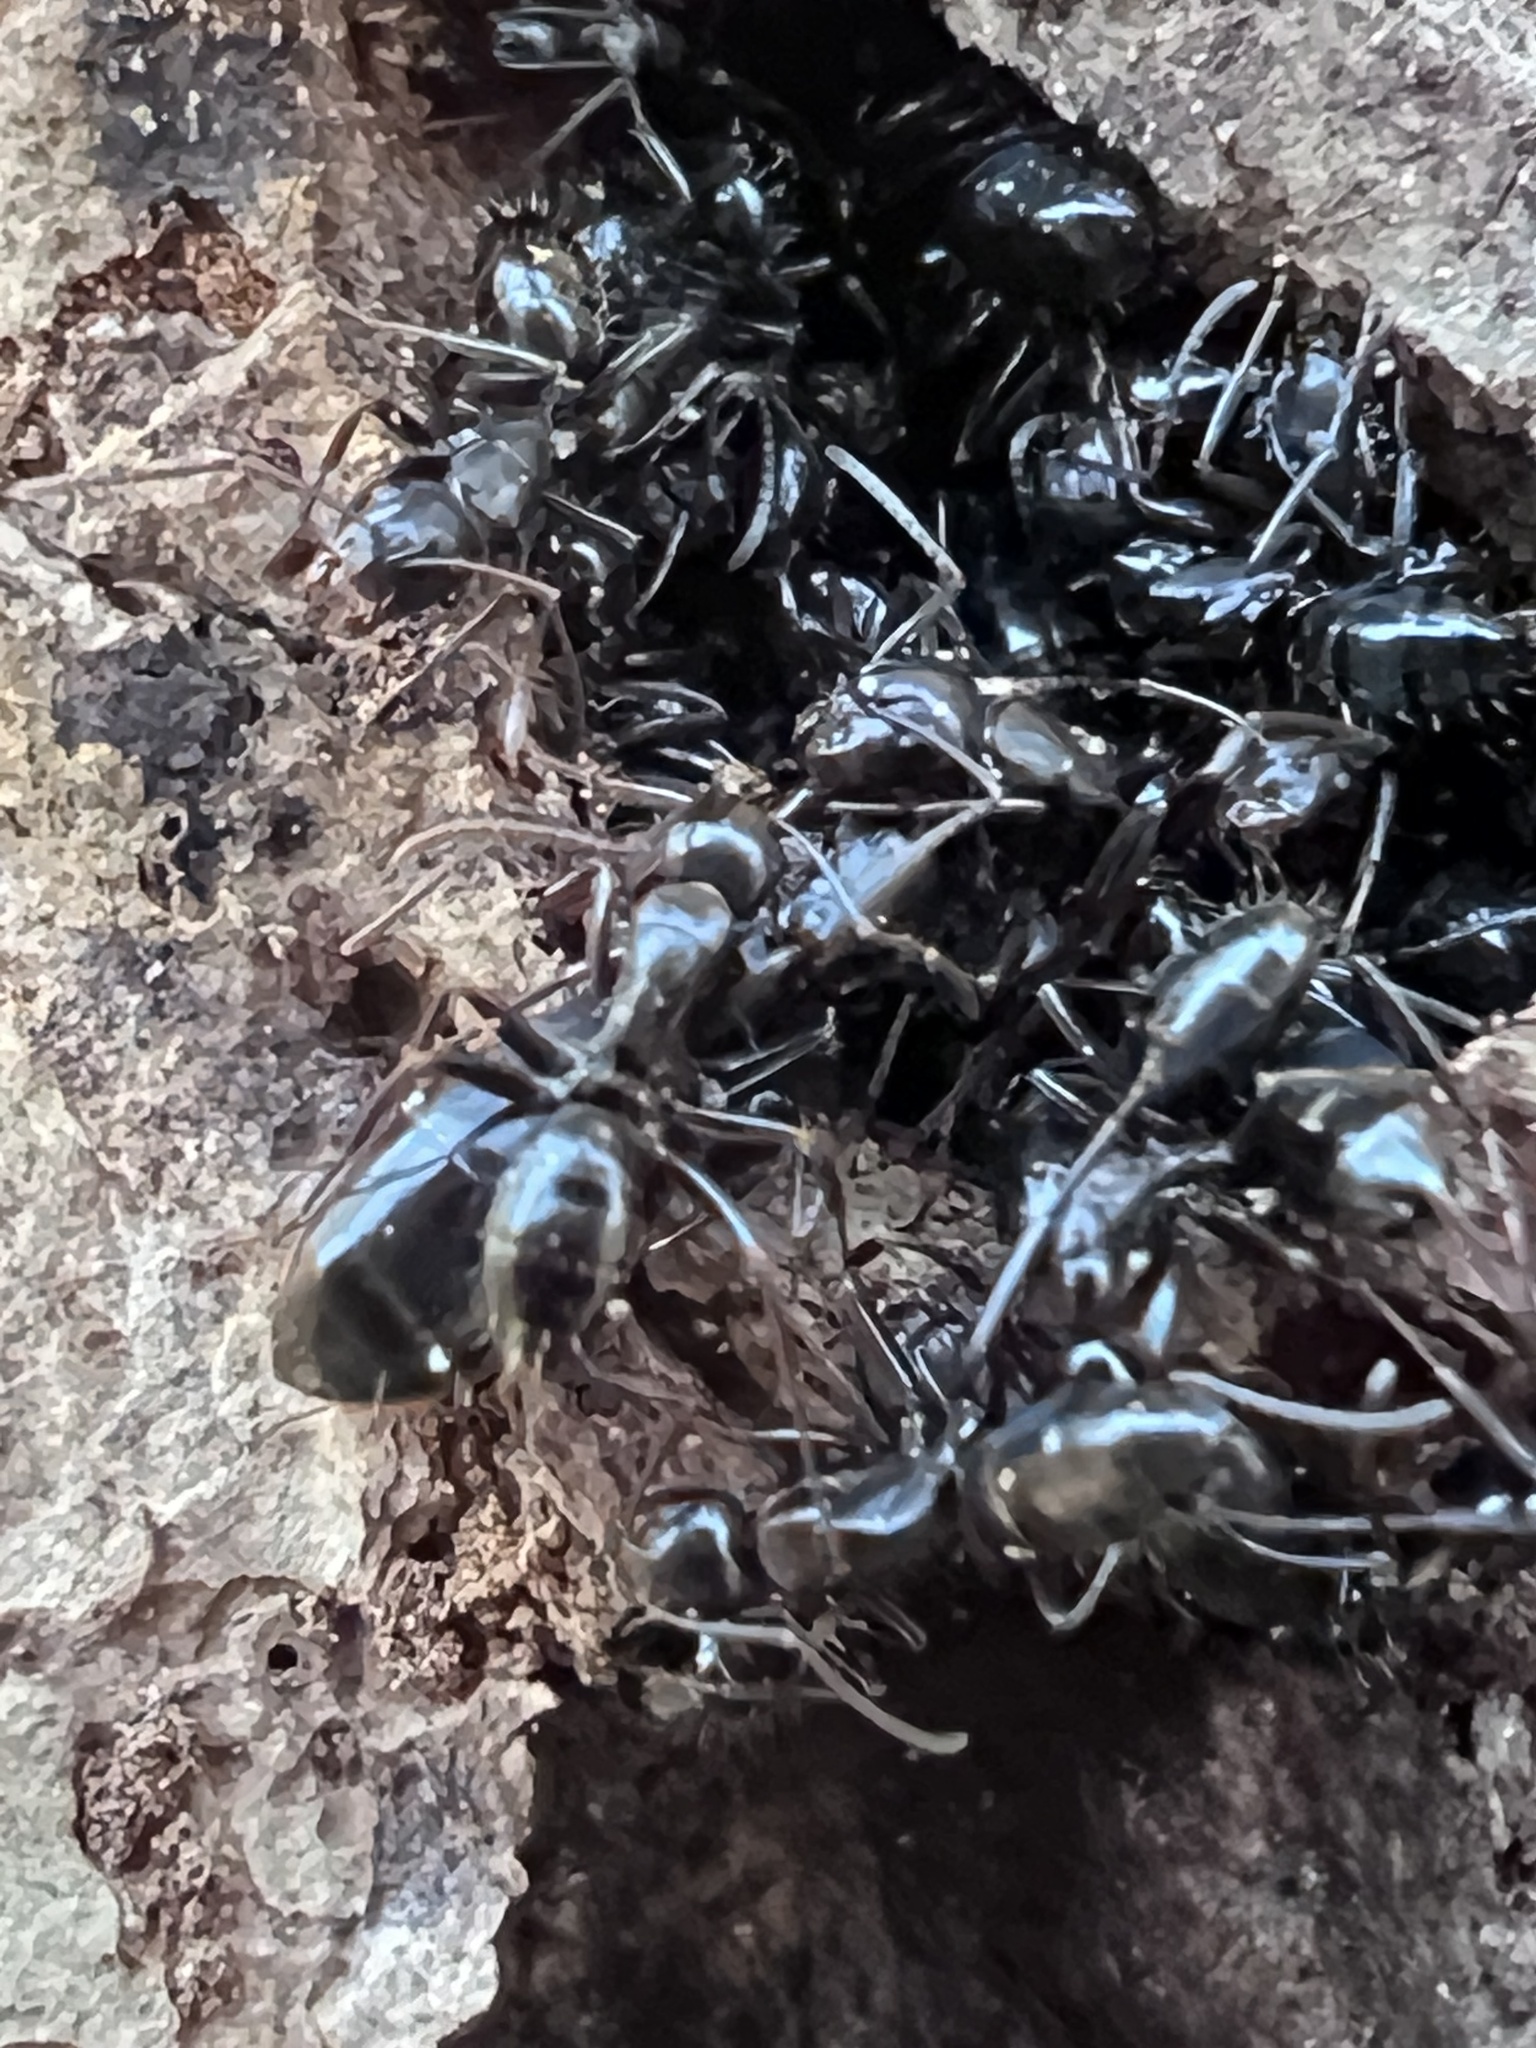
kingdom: Animalia
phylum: Arthropoda
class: Insecta
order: Hymenoptera
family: Formicidae
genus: Camponotus
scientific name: Camponotus nearcticus
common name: Smaller carpenter ant
